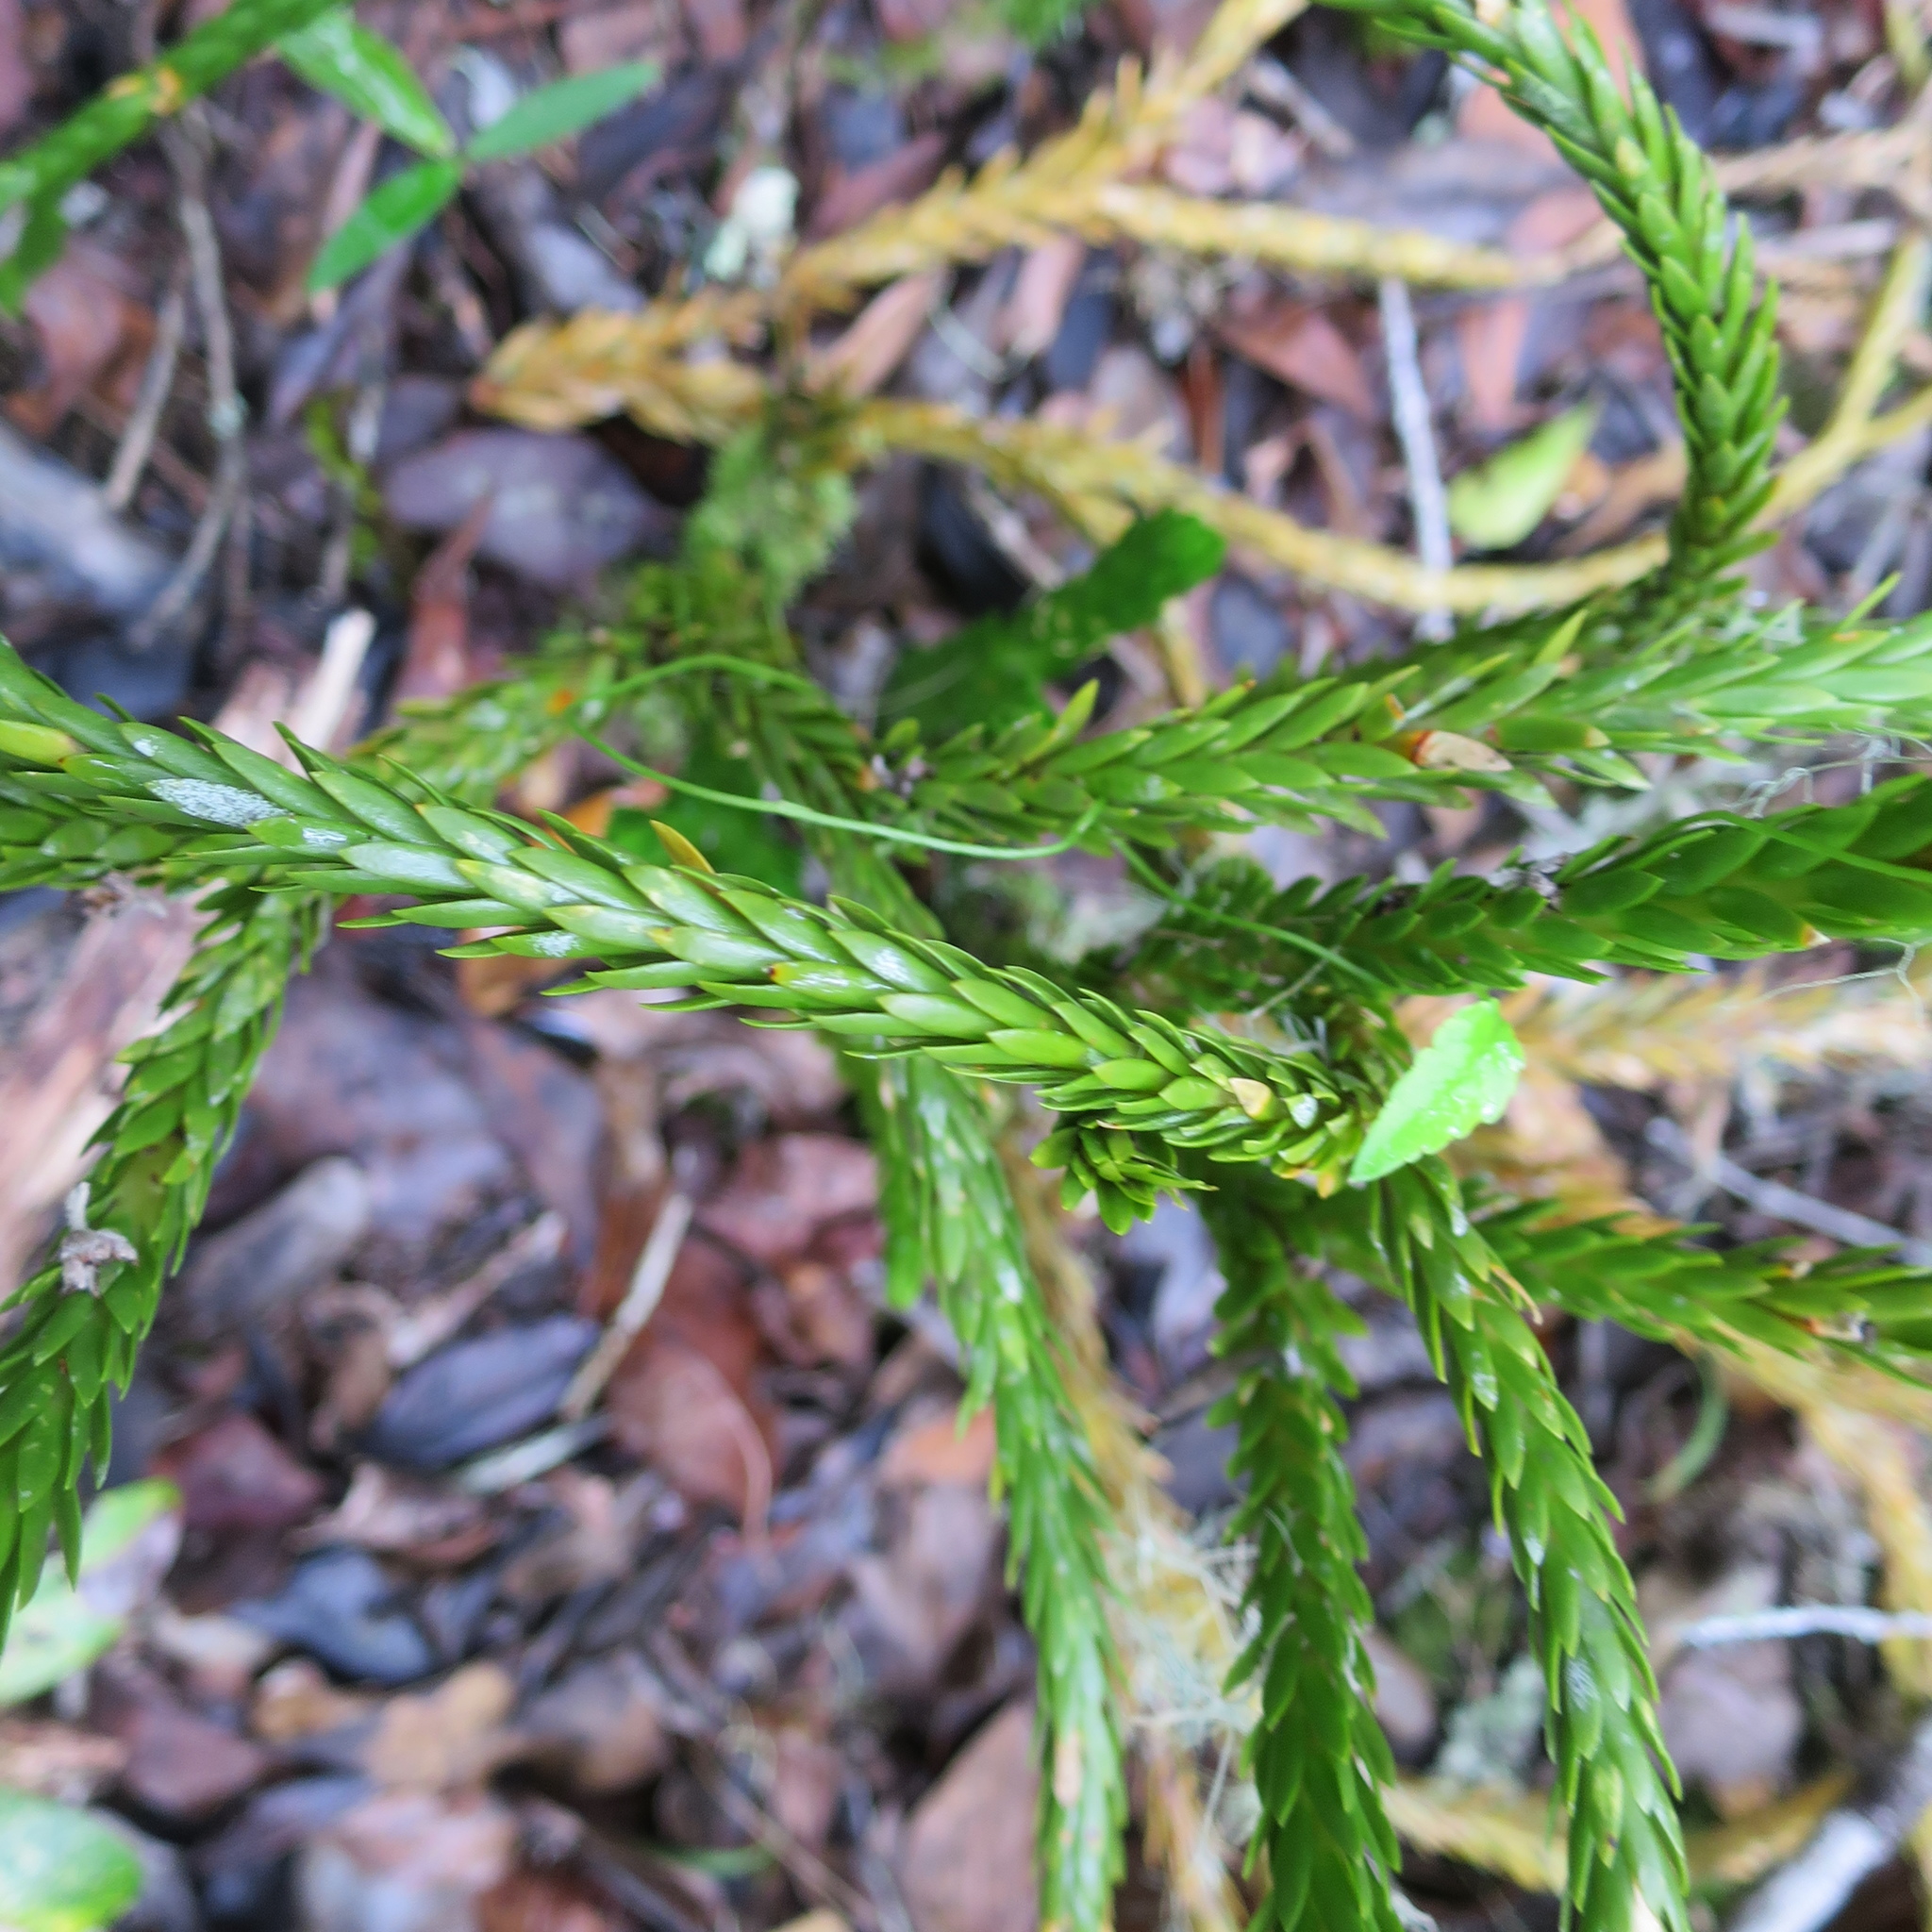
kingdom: Plantae
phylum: Tracheophyta
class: Lycopodiopsida
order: Lycopodiales
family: Lycopodiaceae
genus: Phlegmariurus
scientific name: Phlegmariurus gnidioides
